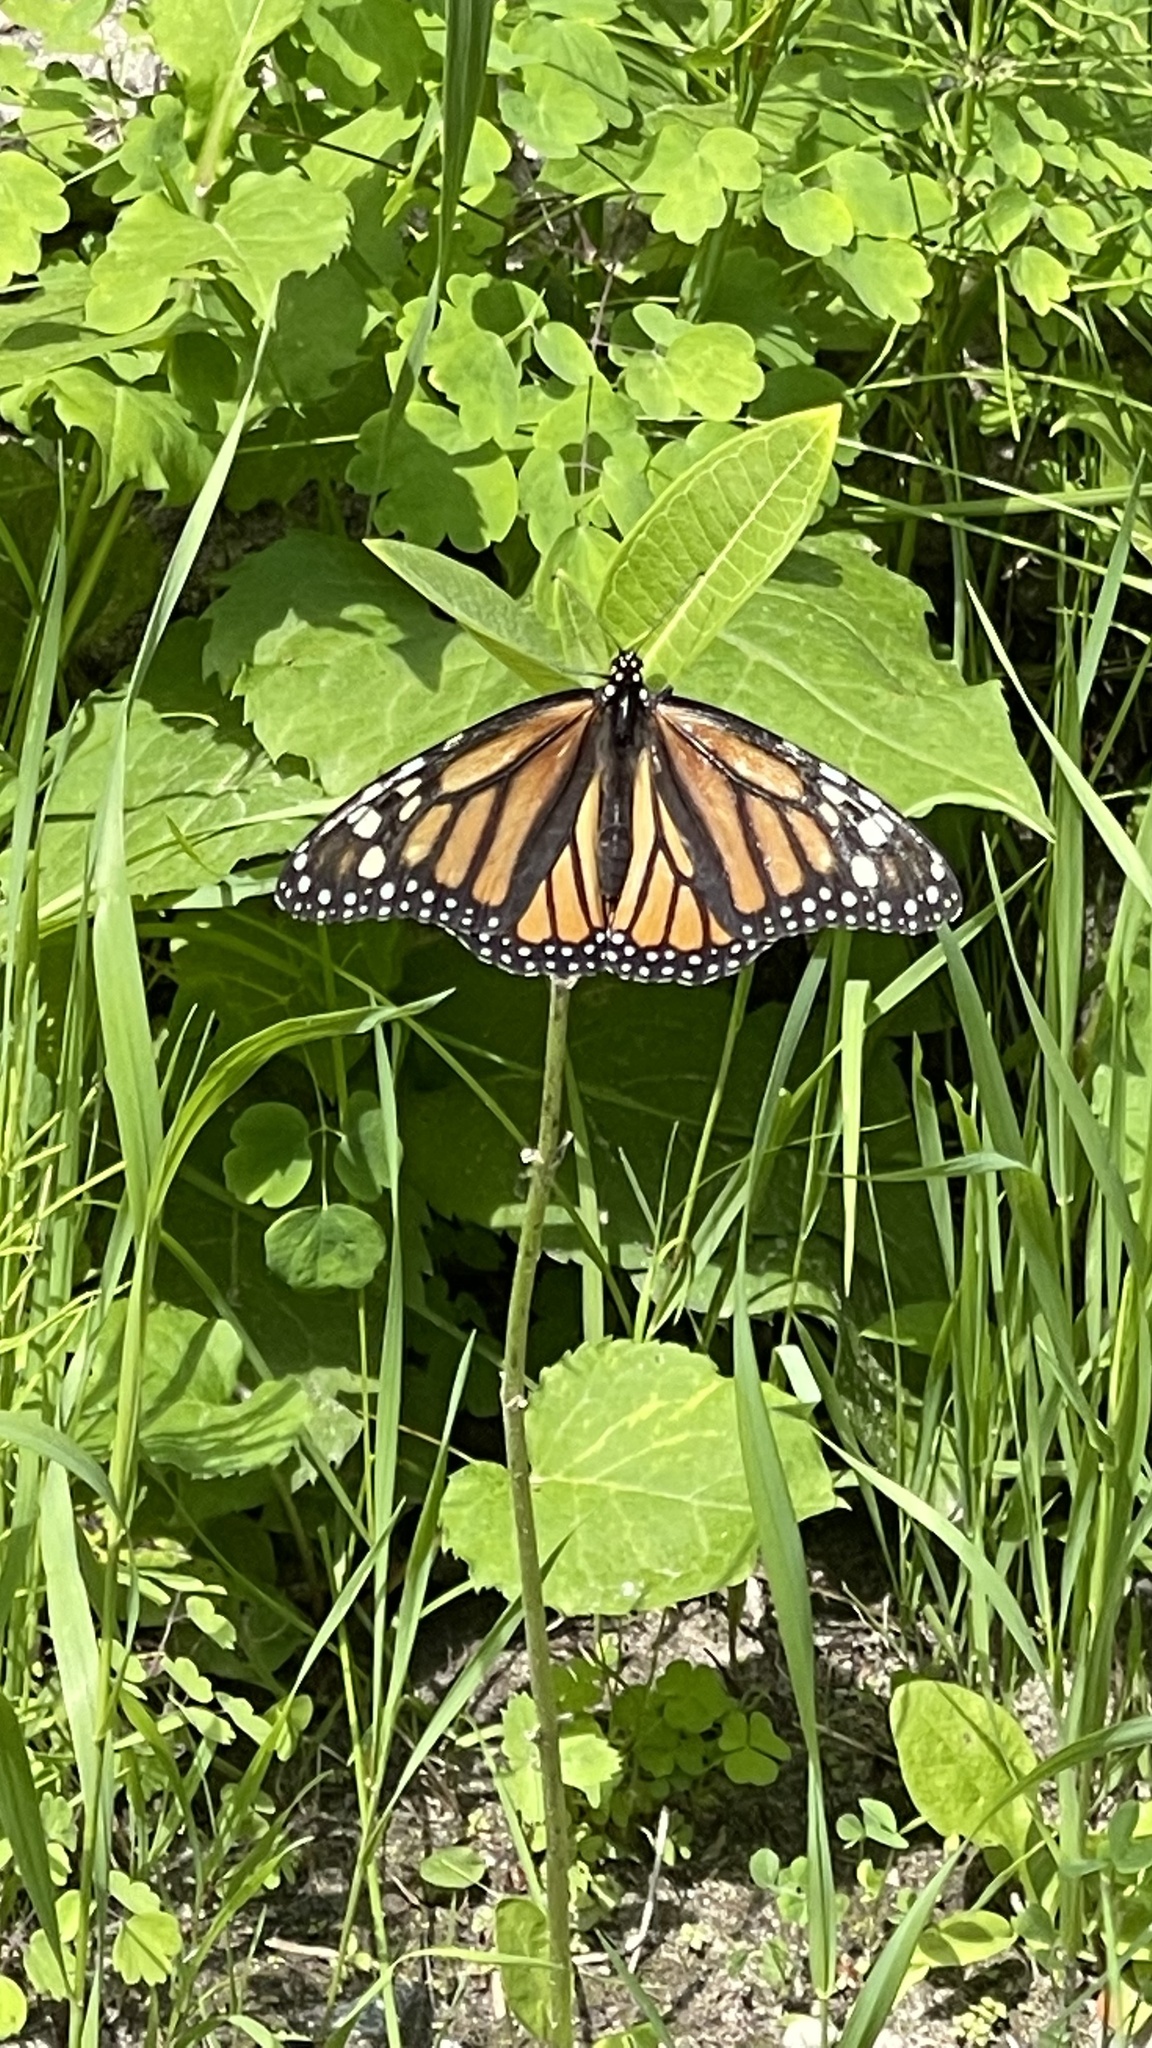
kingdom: Animalia
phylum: Arthropoda
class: Insecta
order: Lepidoptera
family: Nymphalidae
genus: Danaus
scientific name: Danaus plexippus
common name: Monarch
